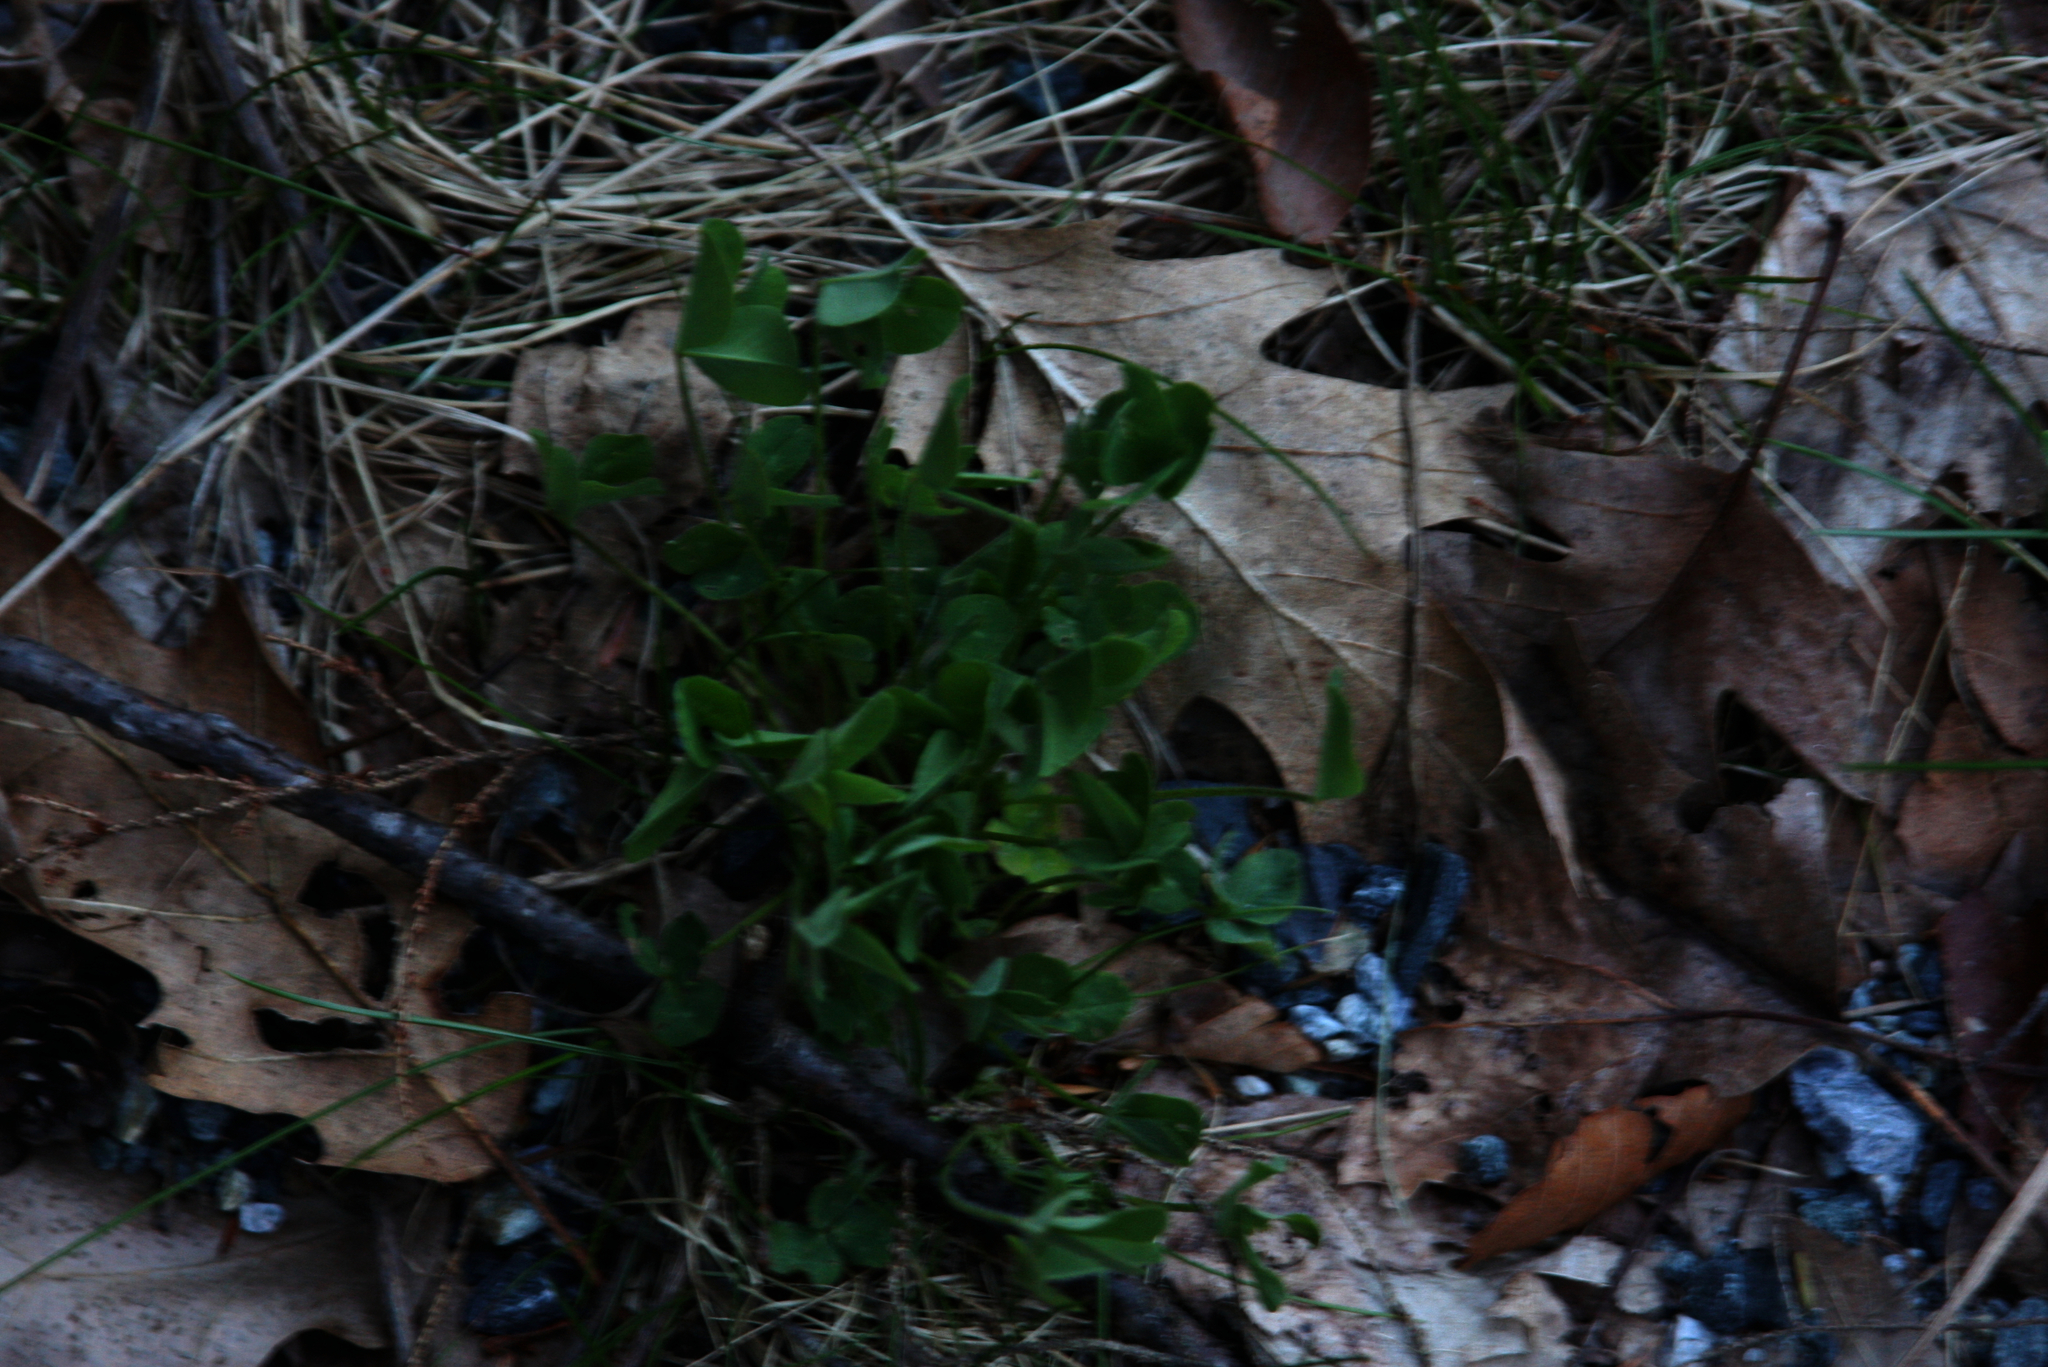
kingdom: Plantae
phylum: Tracheophyta
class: Magnoliopsida
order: Fabales
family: Fabaceae
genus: Trifolium
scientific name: Trifolium pratense
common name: Red clover
